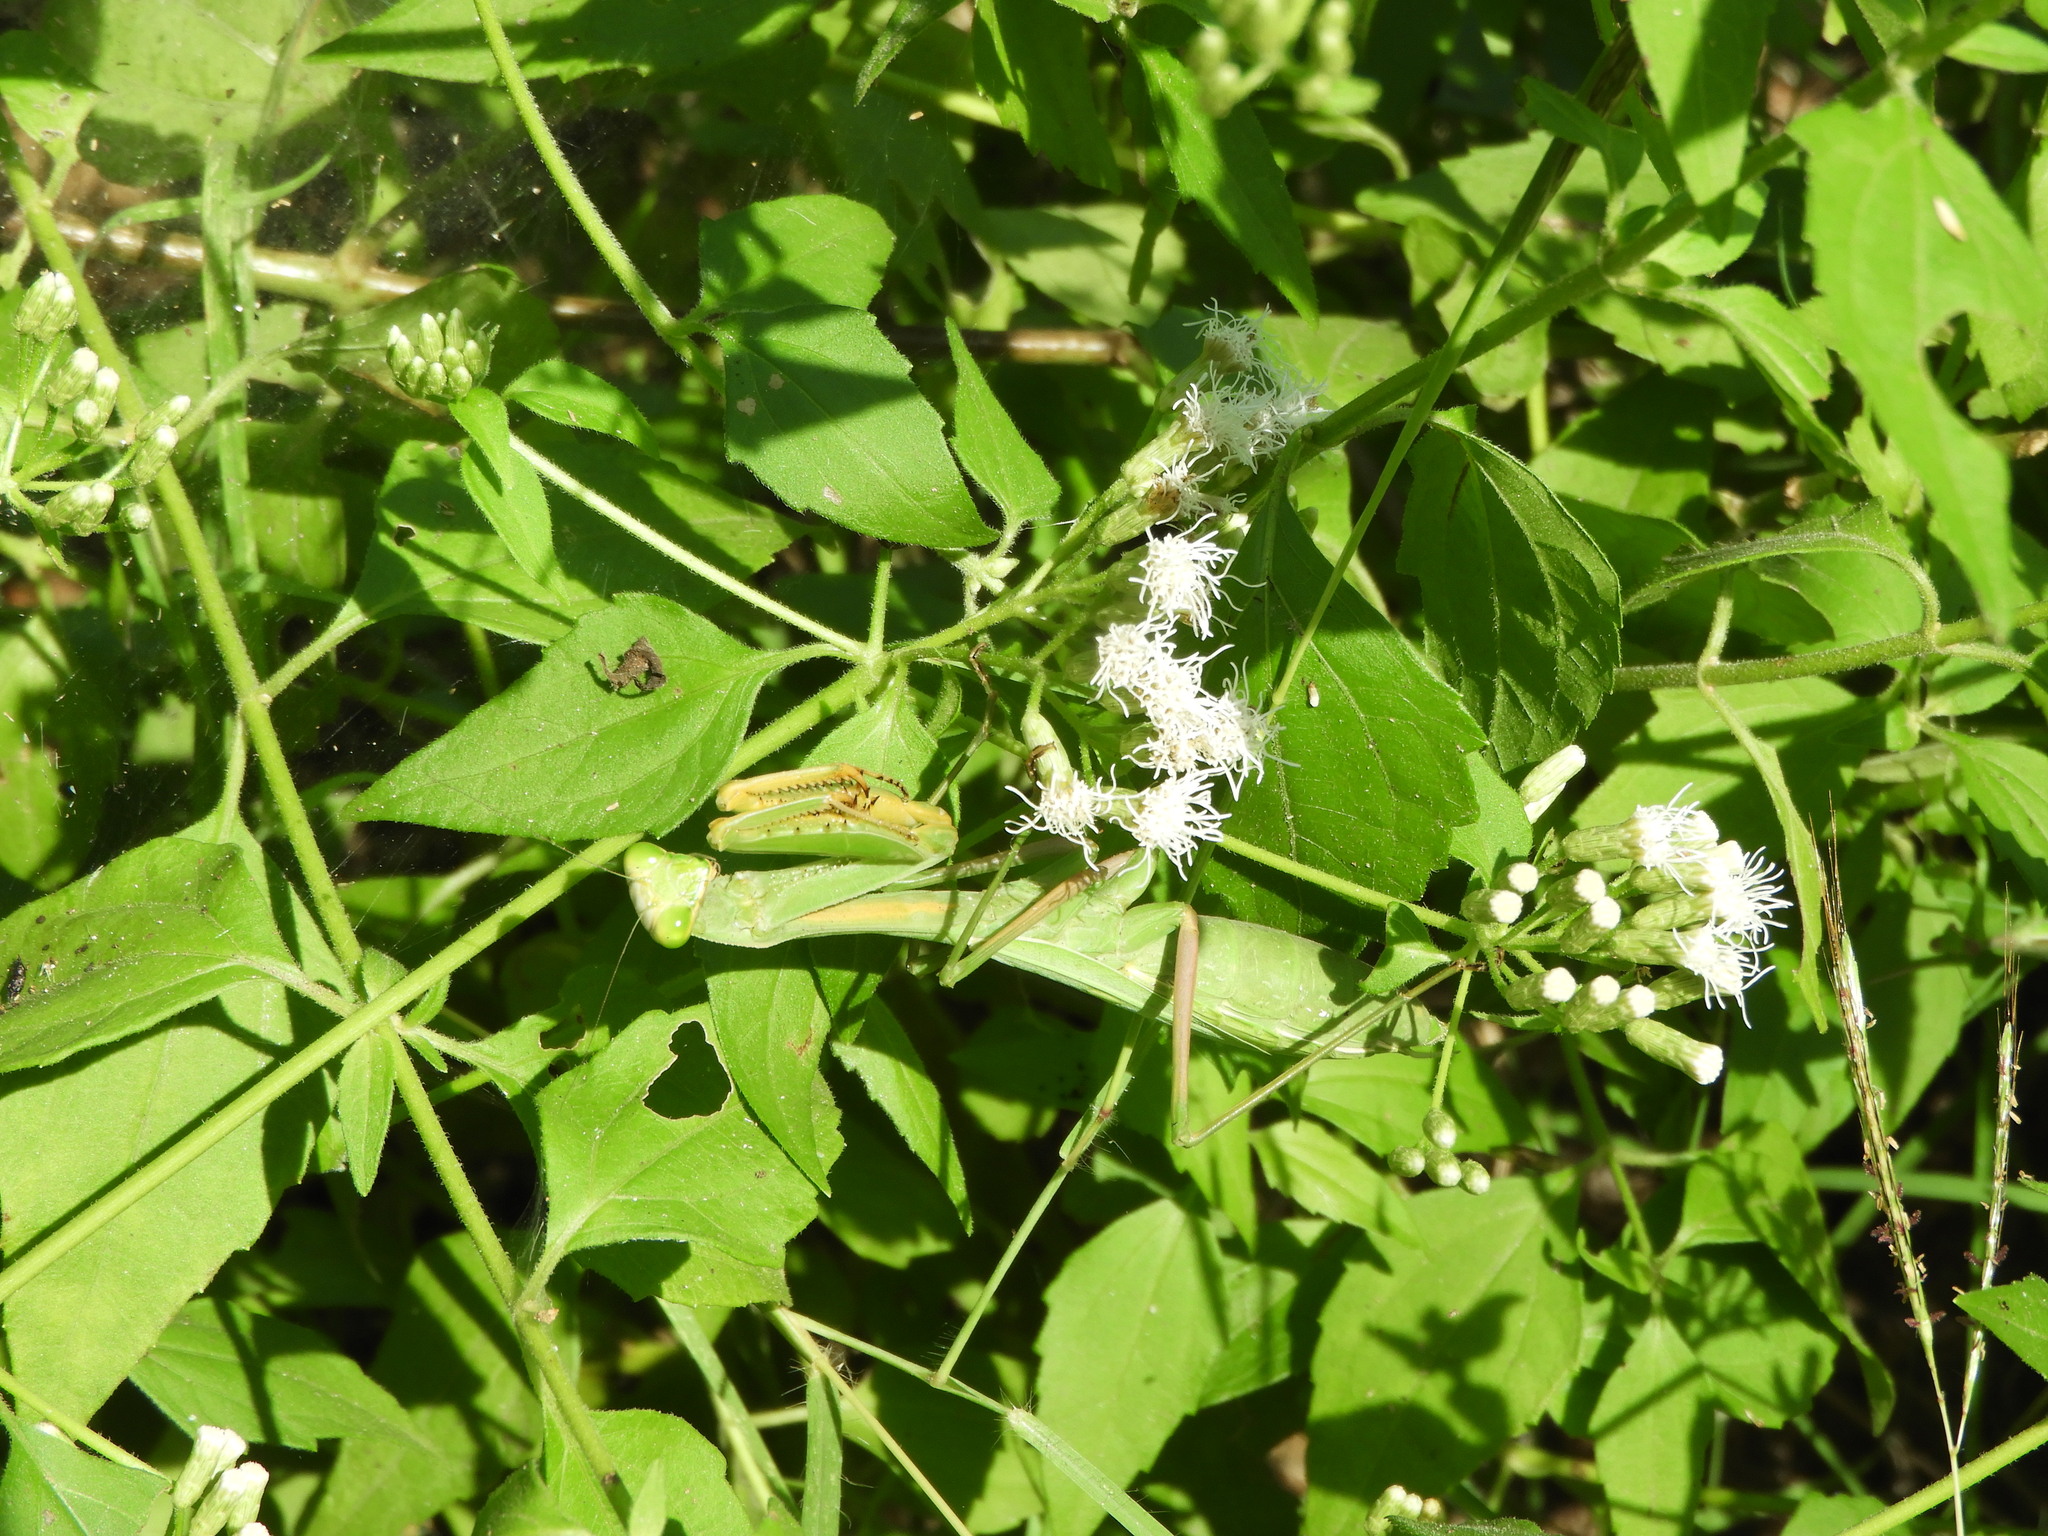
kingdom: Animalia
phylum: Arthropoda
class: Insecta
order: Mantodea
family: Mantidae
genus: Stagmomantis
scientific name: Stagmomantis colorata
